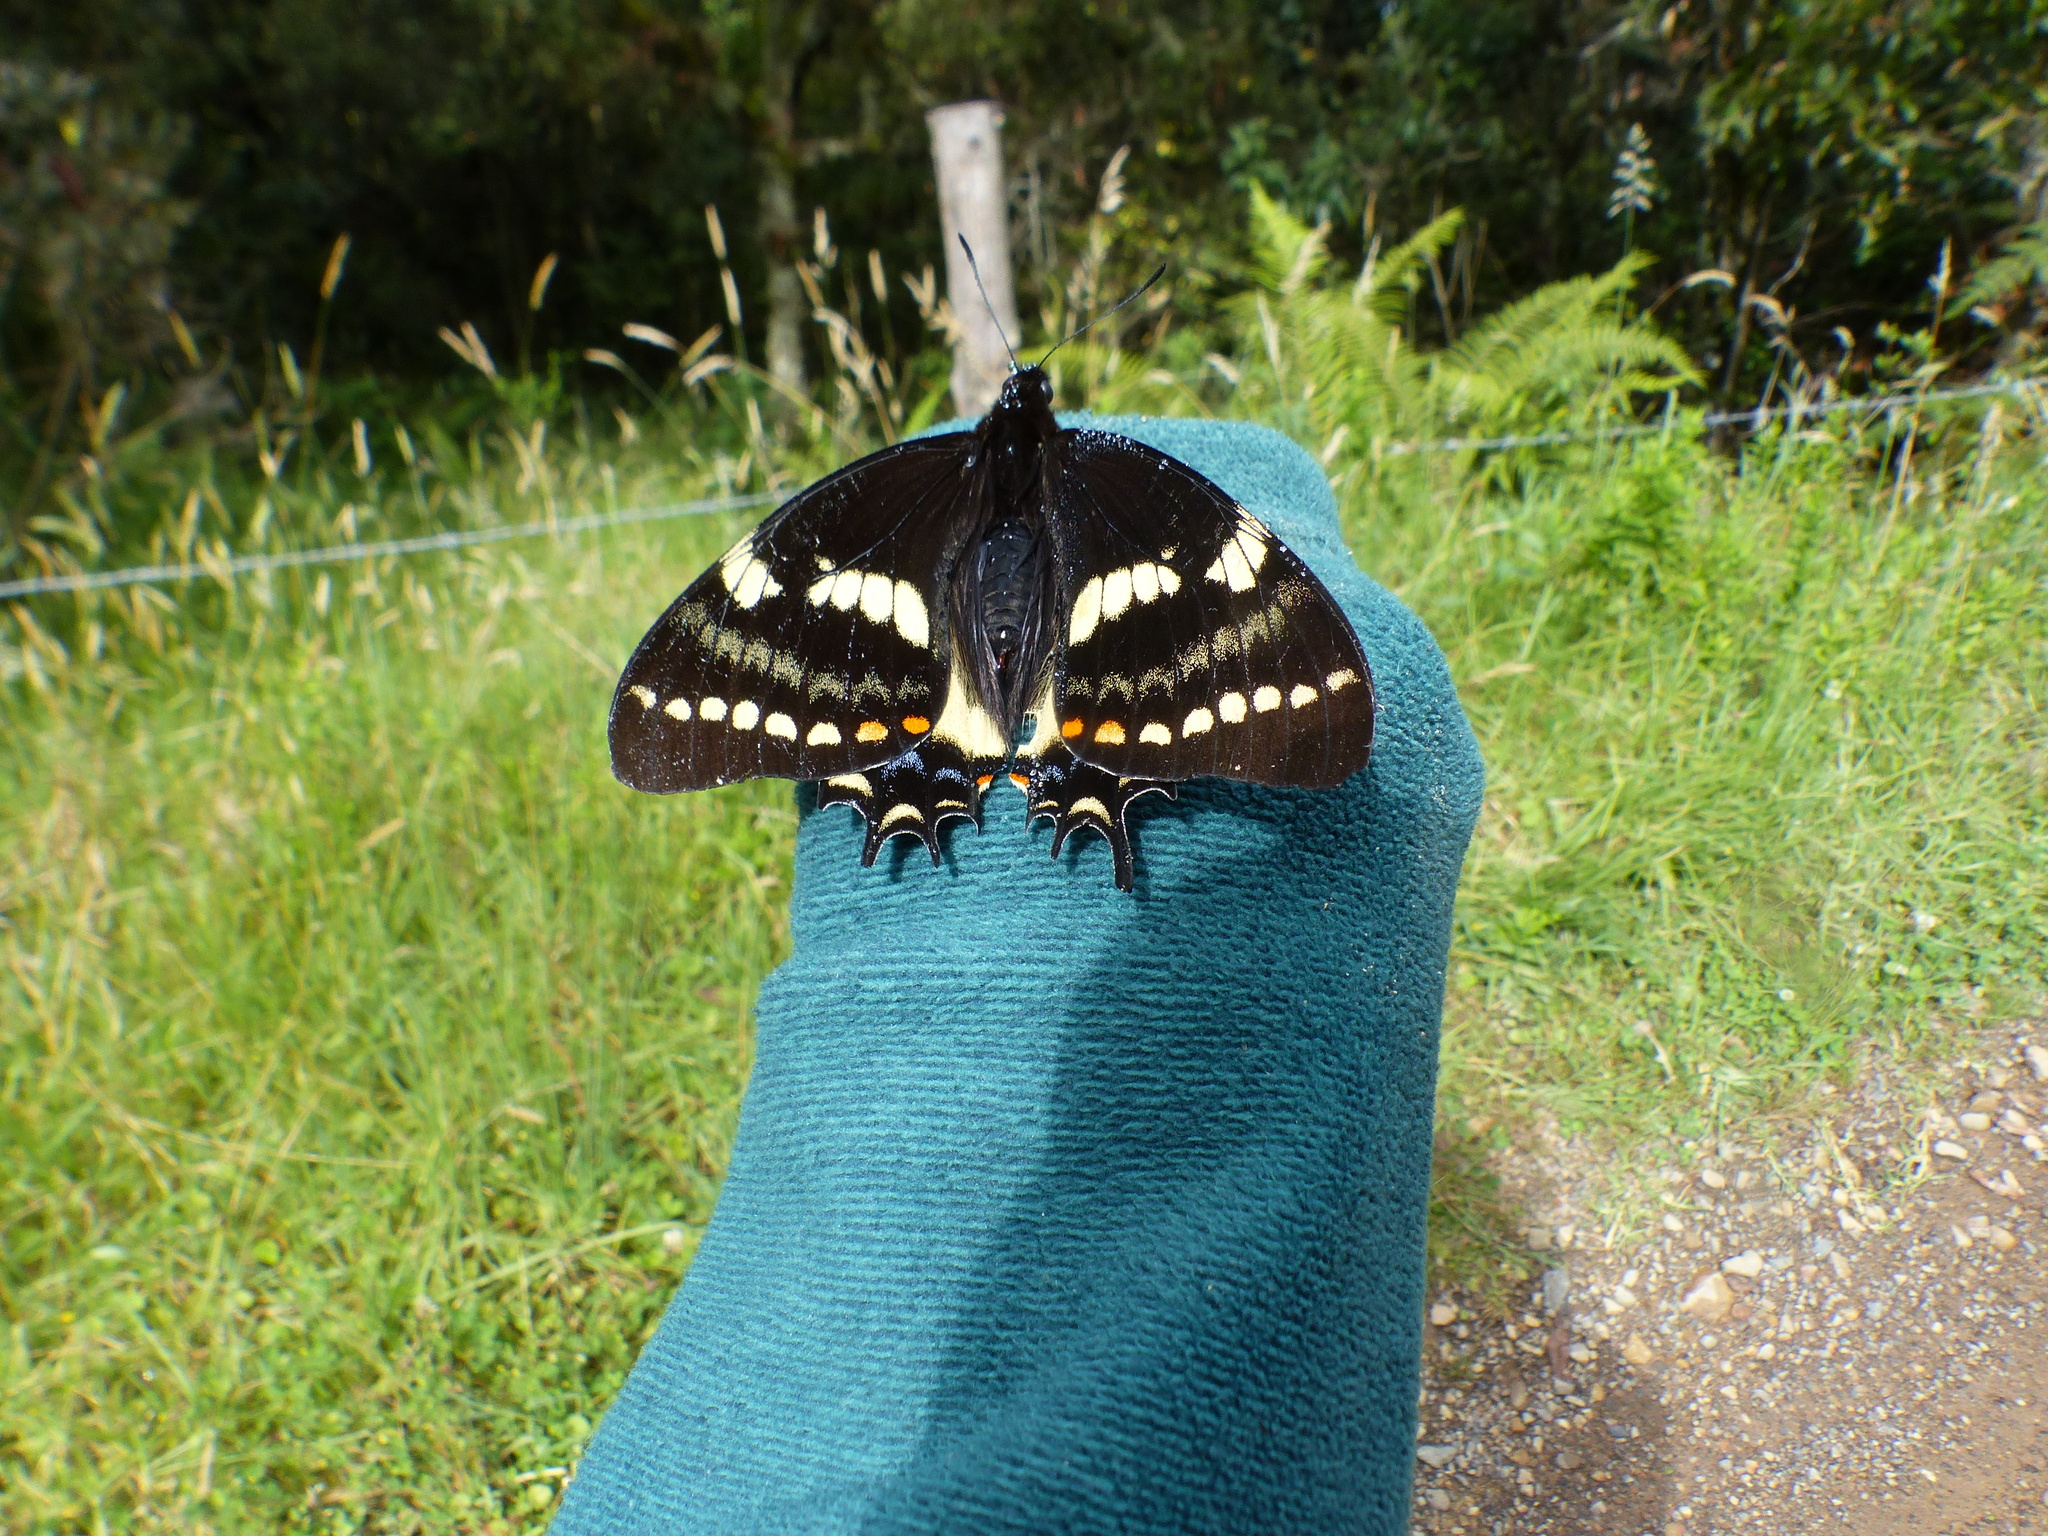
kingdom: Animalia
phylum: Arthropoda
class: Insecta
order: Lepidoptera
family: Papilionidae
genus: Papilio
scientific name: Papilio cacicus
